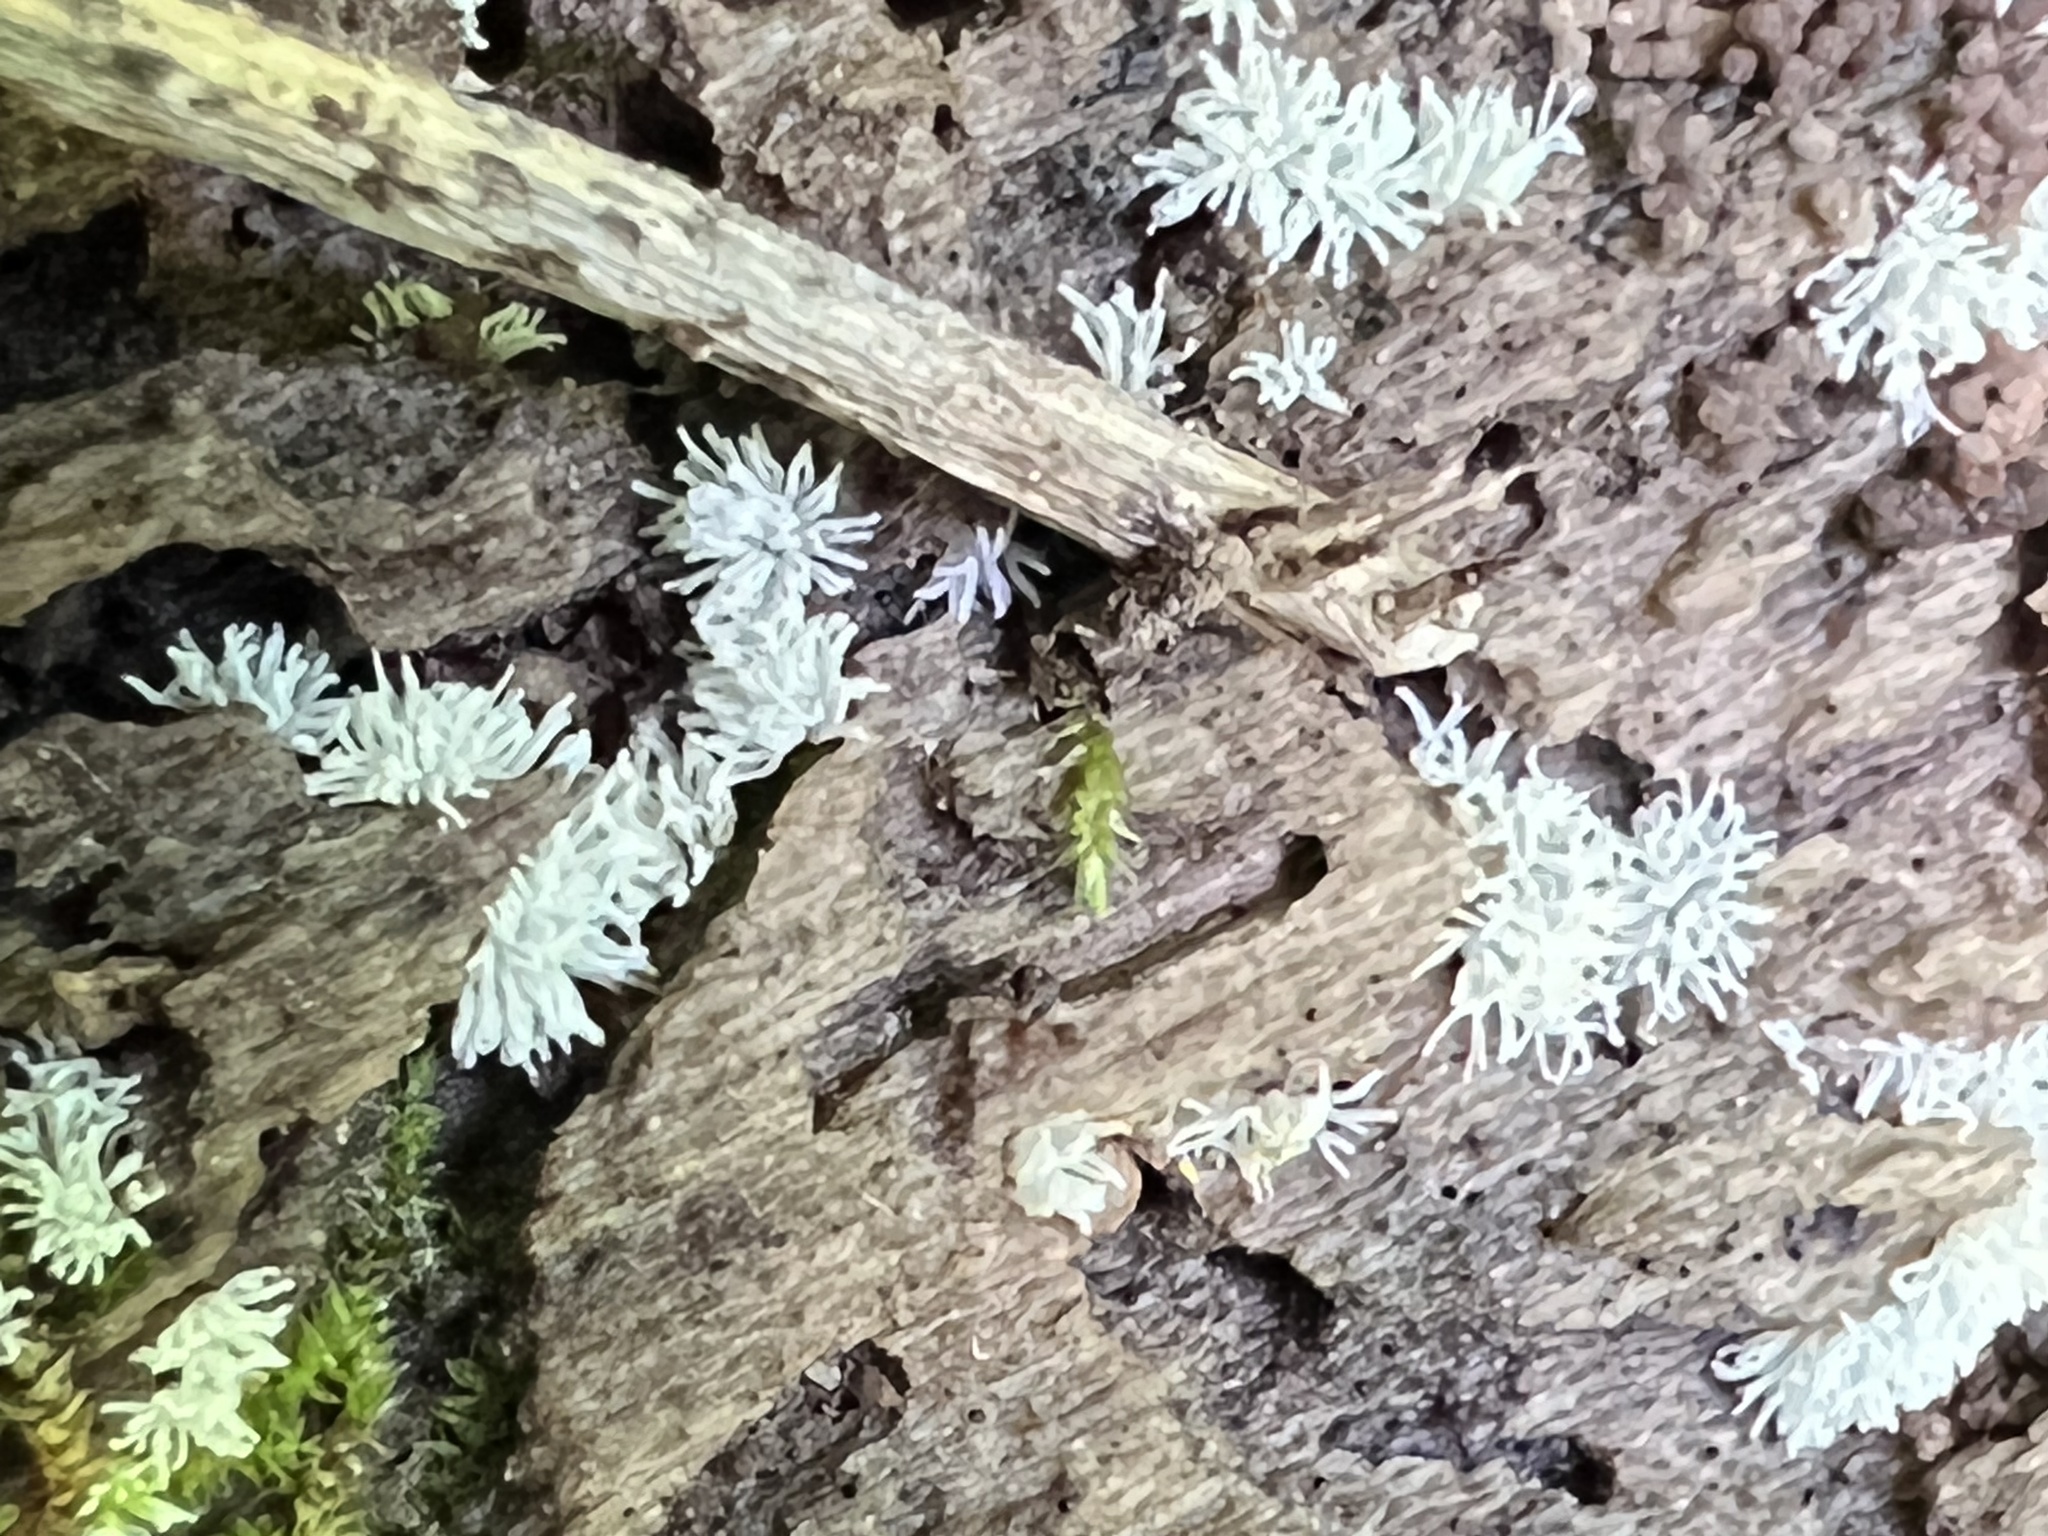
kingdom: Protozoa
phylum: Mycetozoa
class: Protosteliomycetes
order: Ceratiomyxales
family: Ceratiomyxaceae
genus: Ceratiomyxa
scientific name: Ceratiomyxa fruticulosa
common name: Honeycomb coral slime mold
